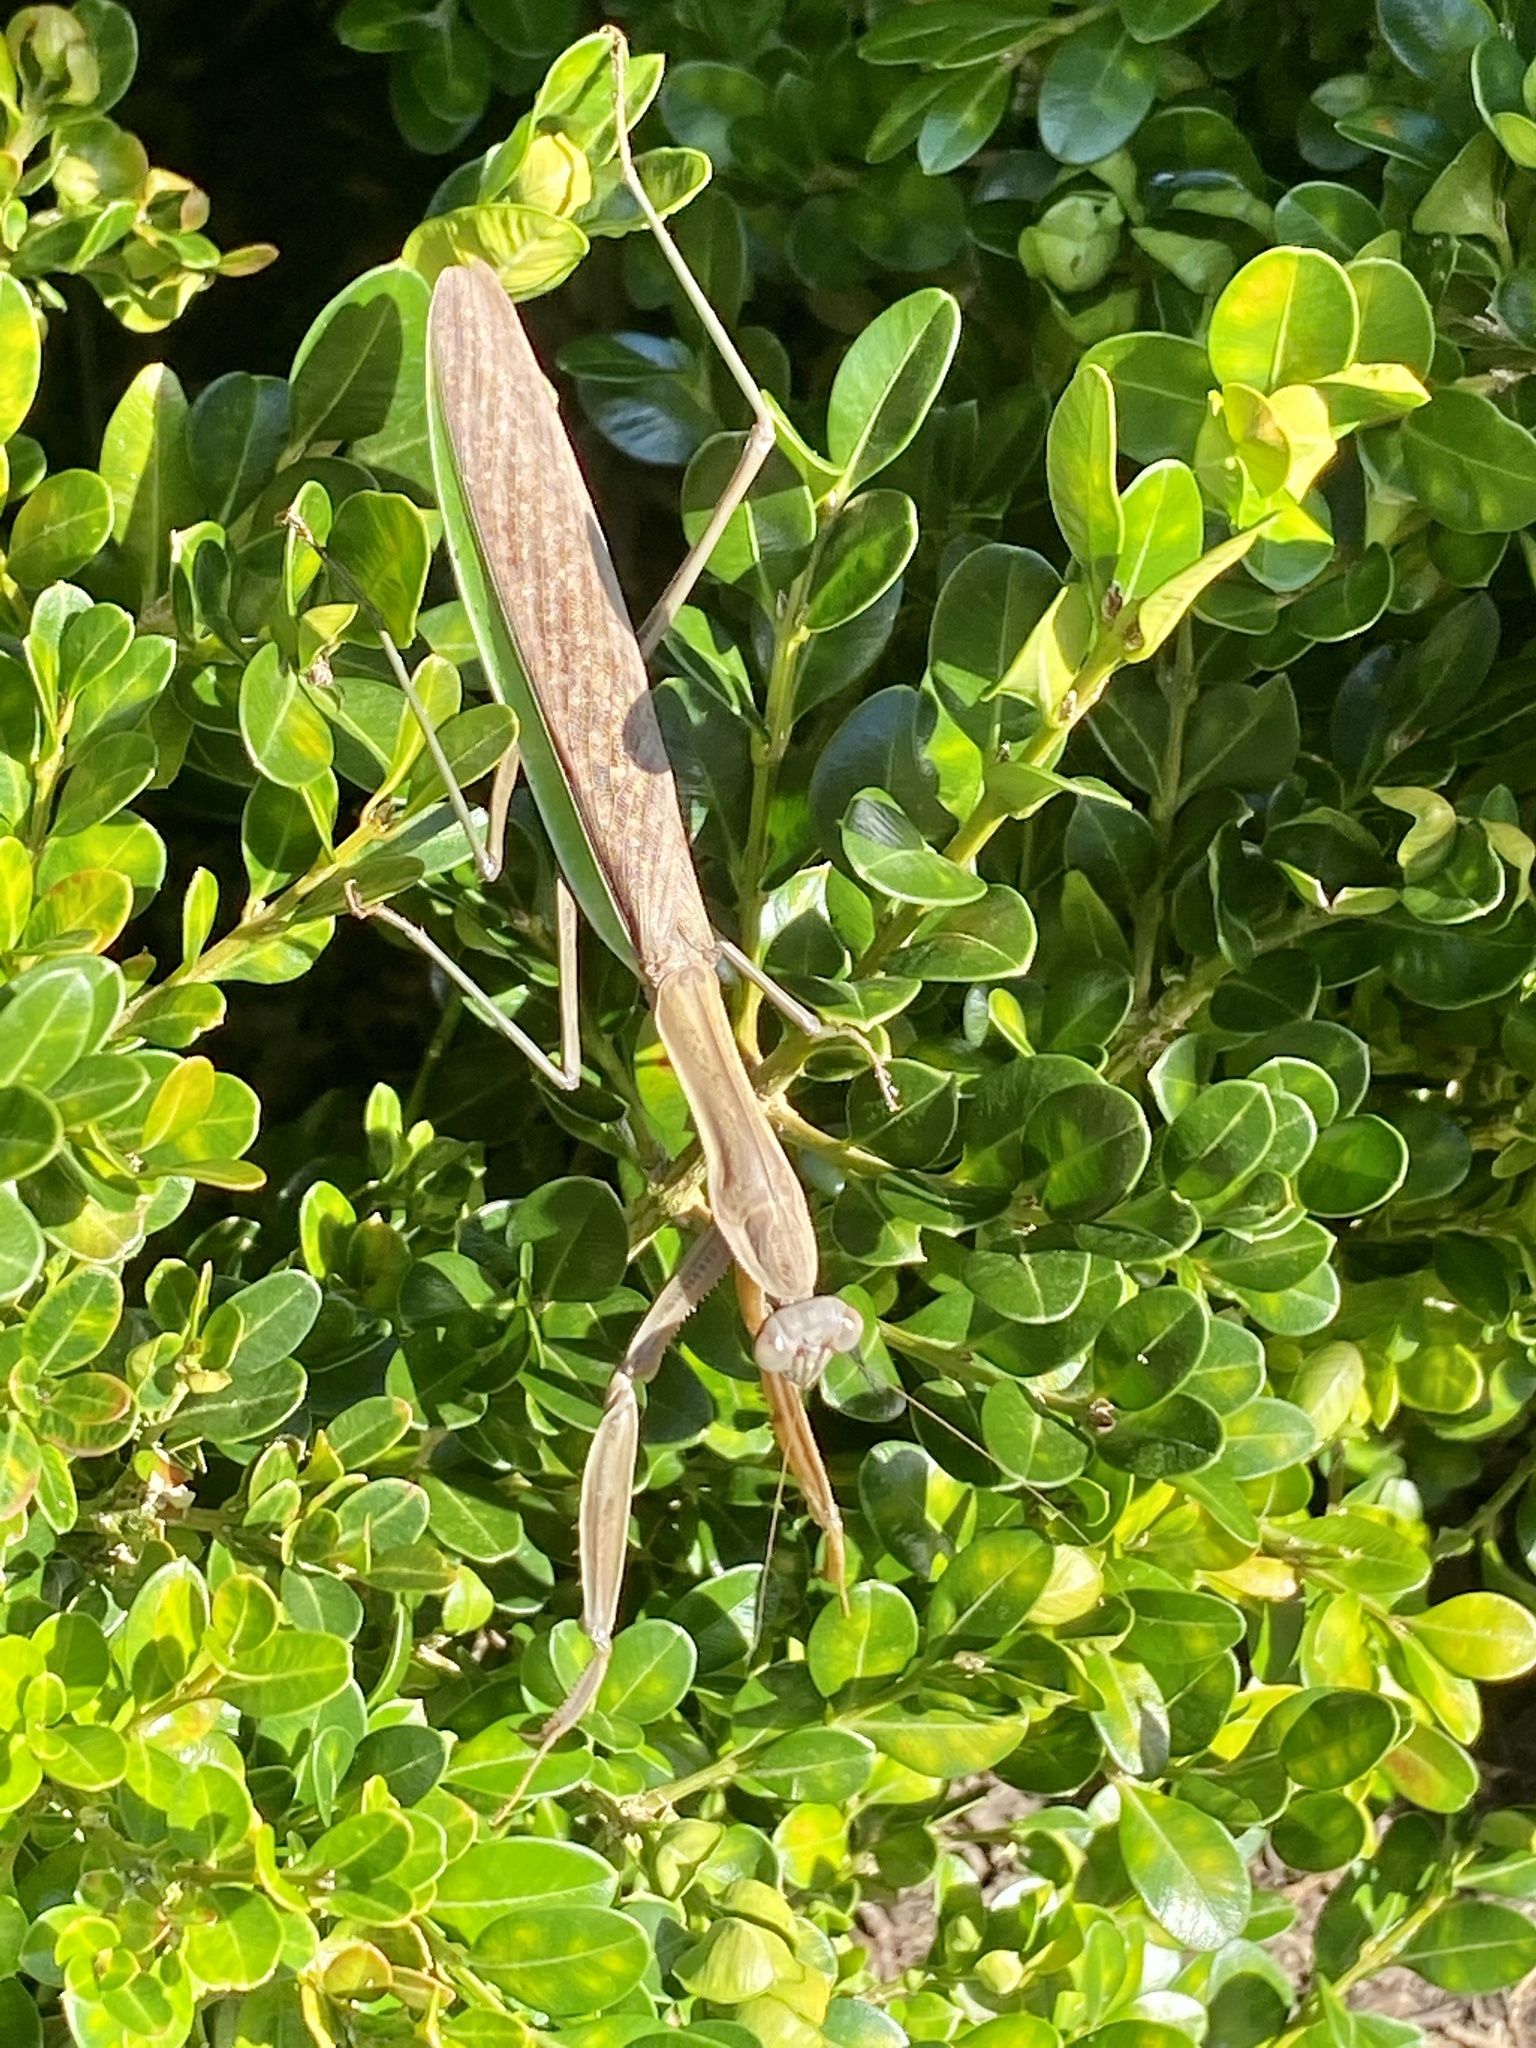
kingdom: Animalia
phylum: Arthropoda
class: Insecta
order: Mantodea
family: Mantidae
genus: Tenodera
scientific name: Tenodera sinensis
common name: Chinese mantis
